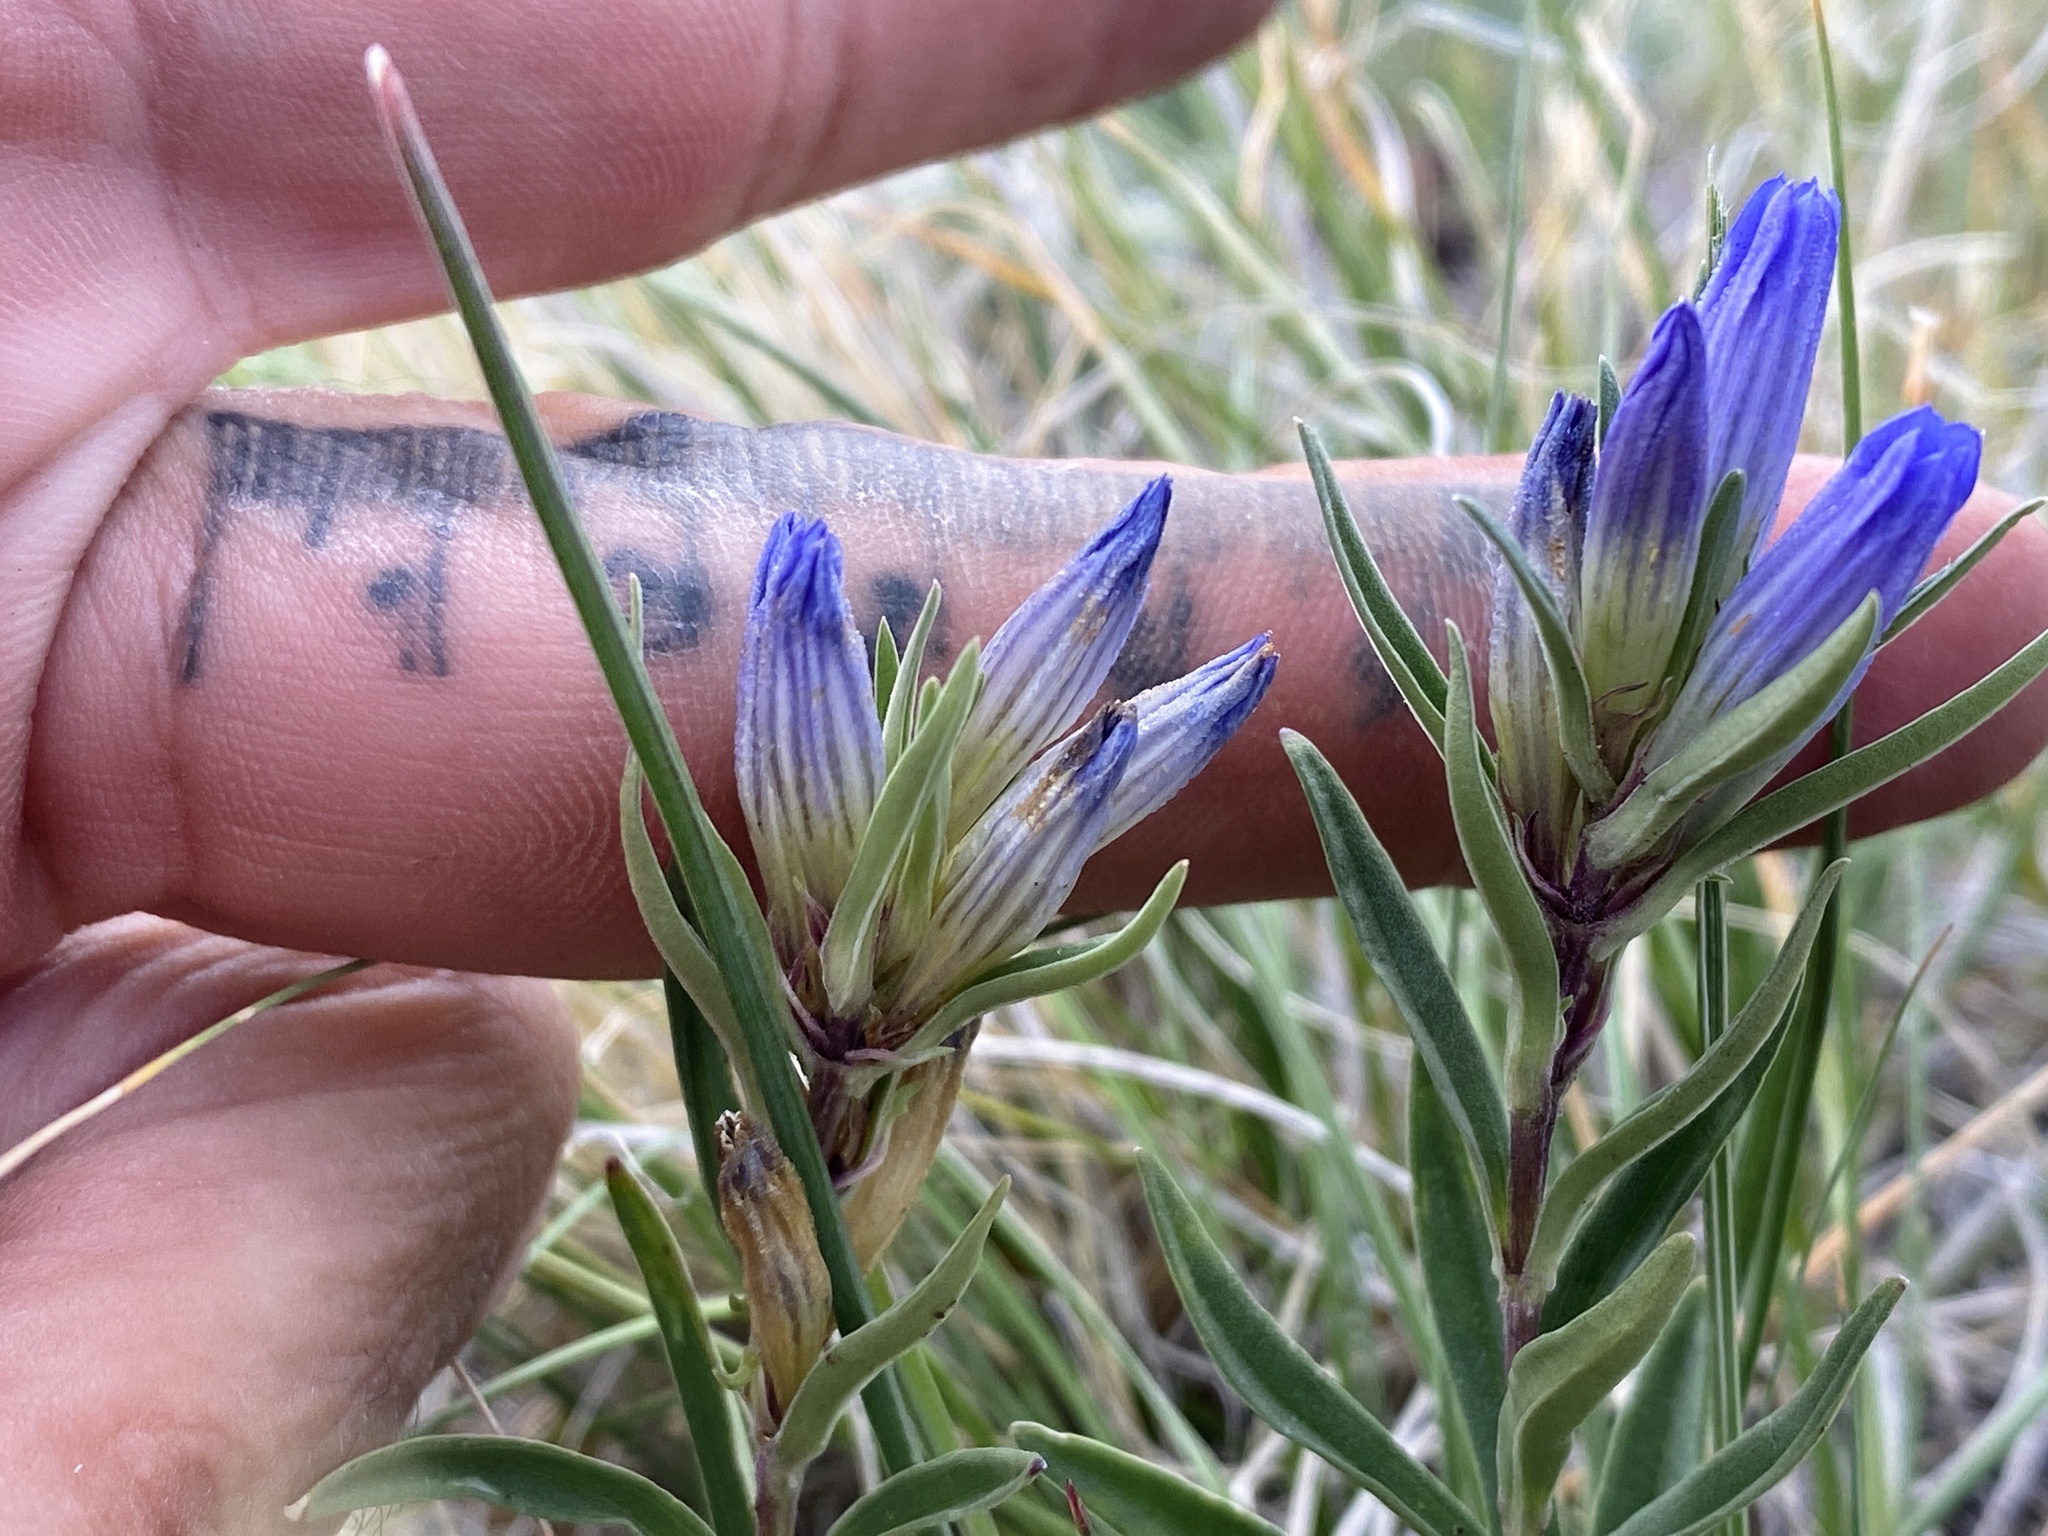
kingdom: Plantae
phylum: Tracheophyta
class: Magnoliopsida
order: Gentianales
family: Gentianaceae
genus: Gentiana
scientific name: Gentiana affinis
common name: Rocky mountain gentian
